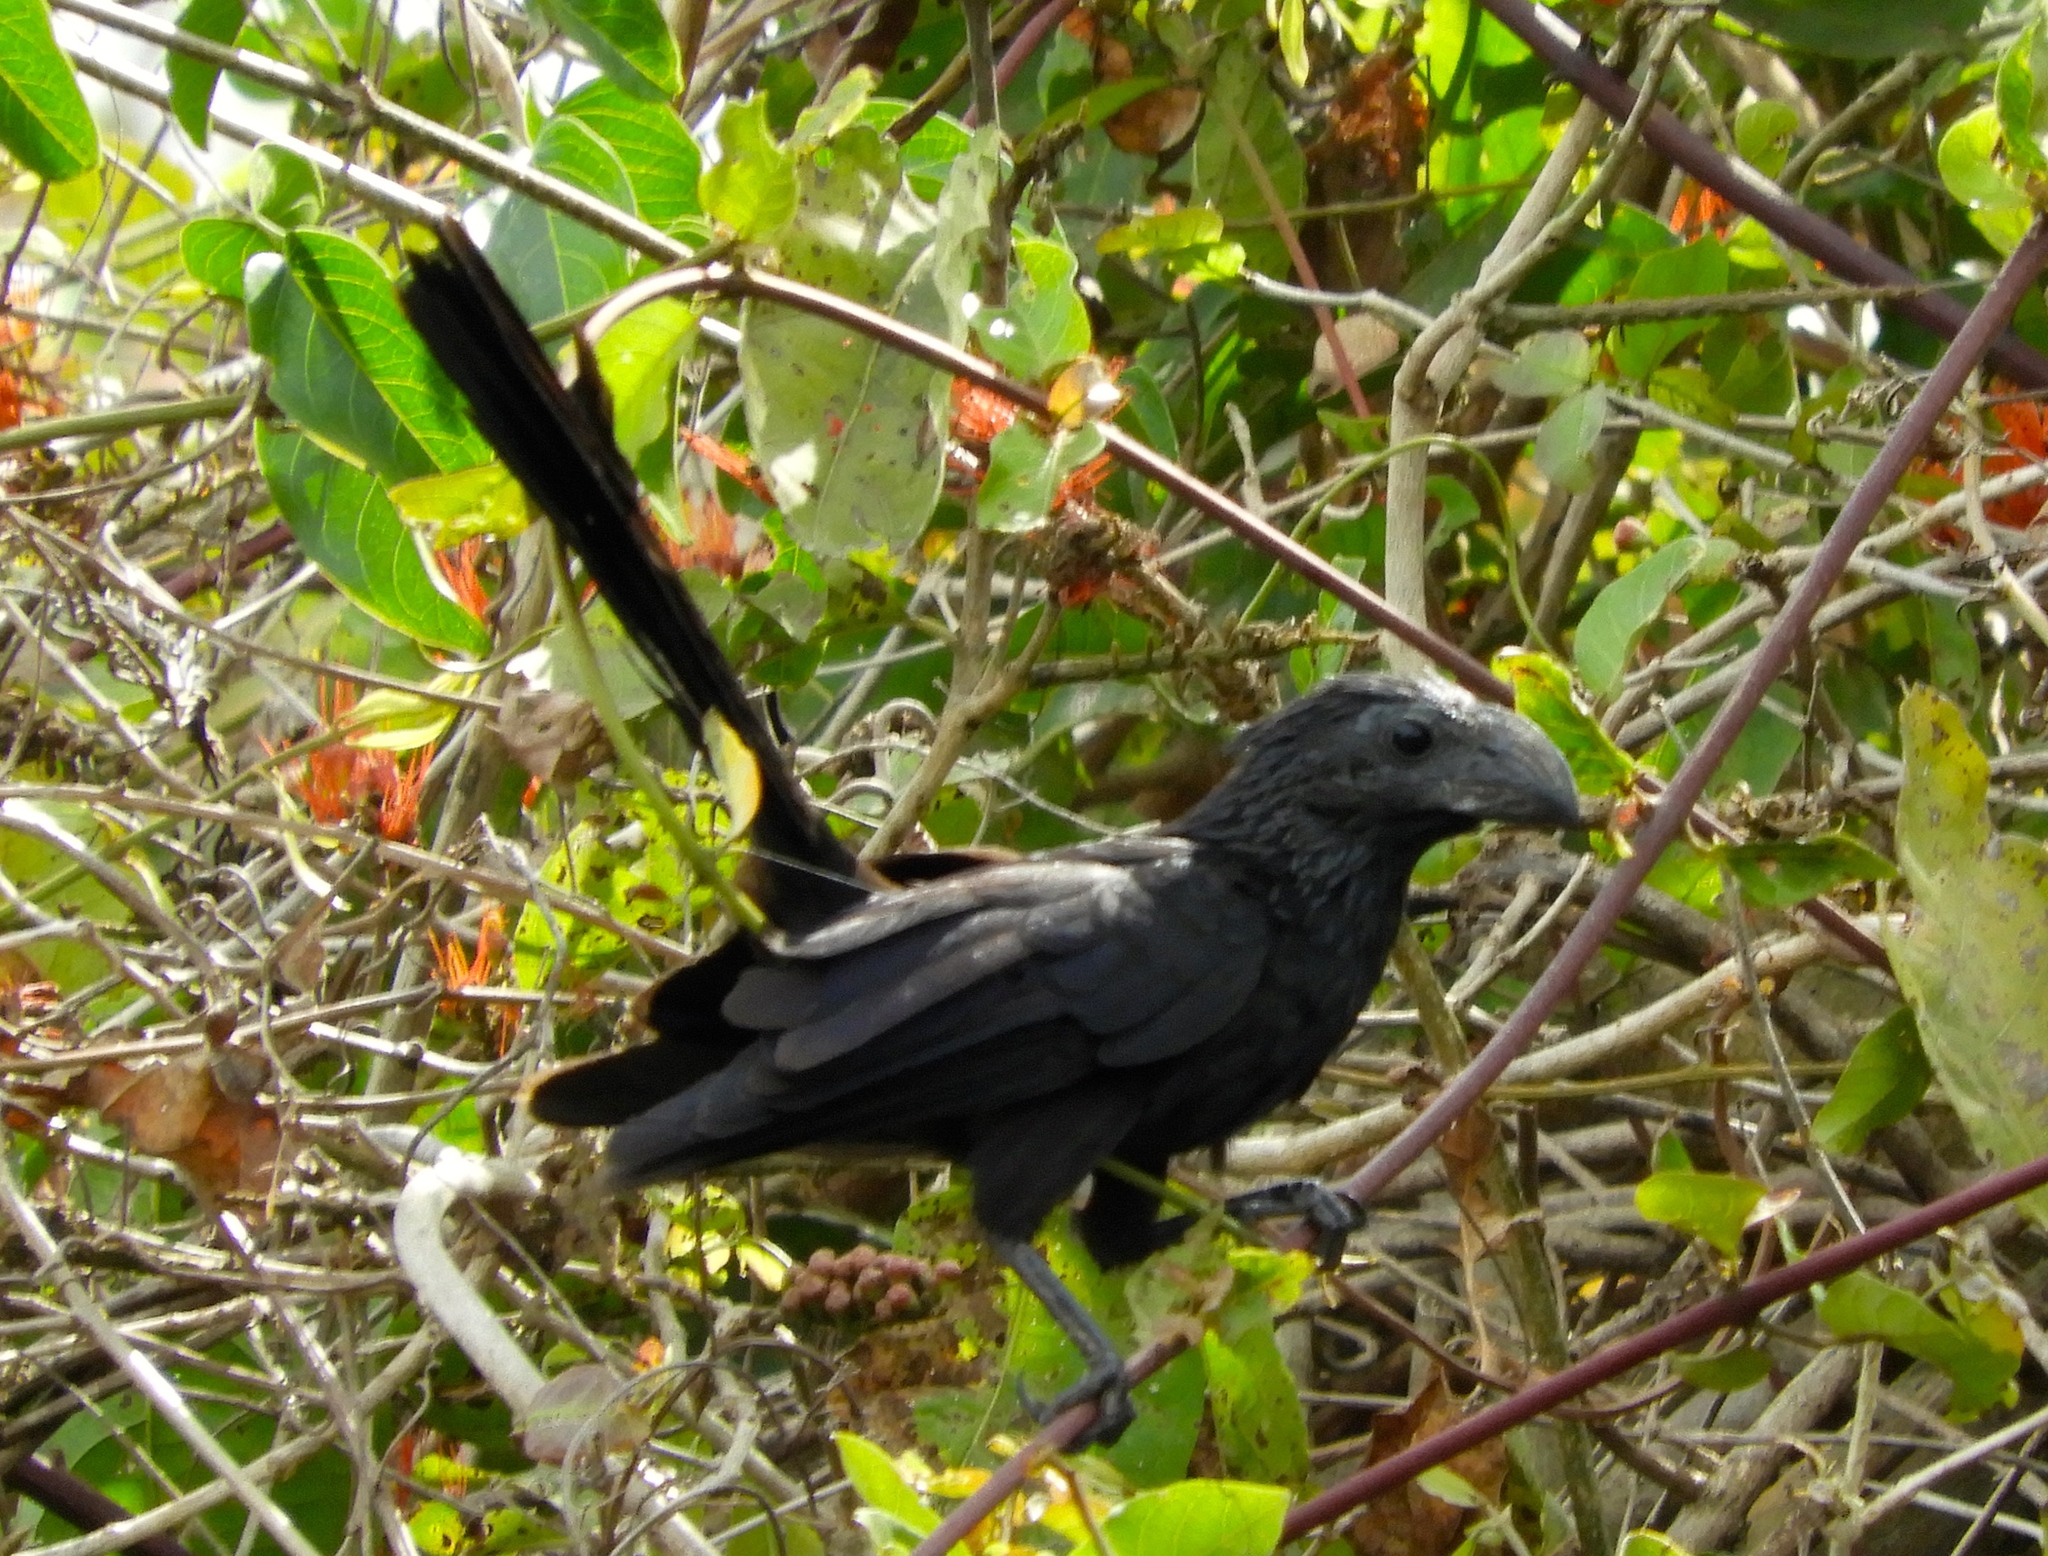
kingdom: Animalia
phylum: Chordata
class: Aves
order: Cuculiformes
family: Cuculidae
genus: Crotophaga
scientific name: Crotophaga sulcirostris
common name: Groove-billed ani
